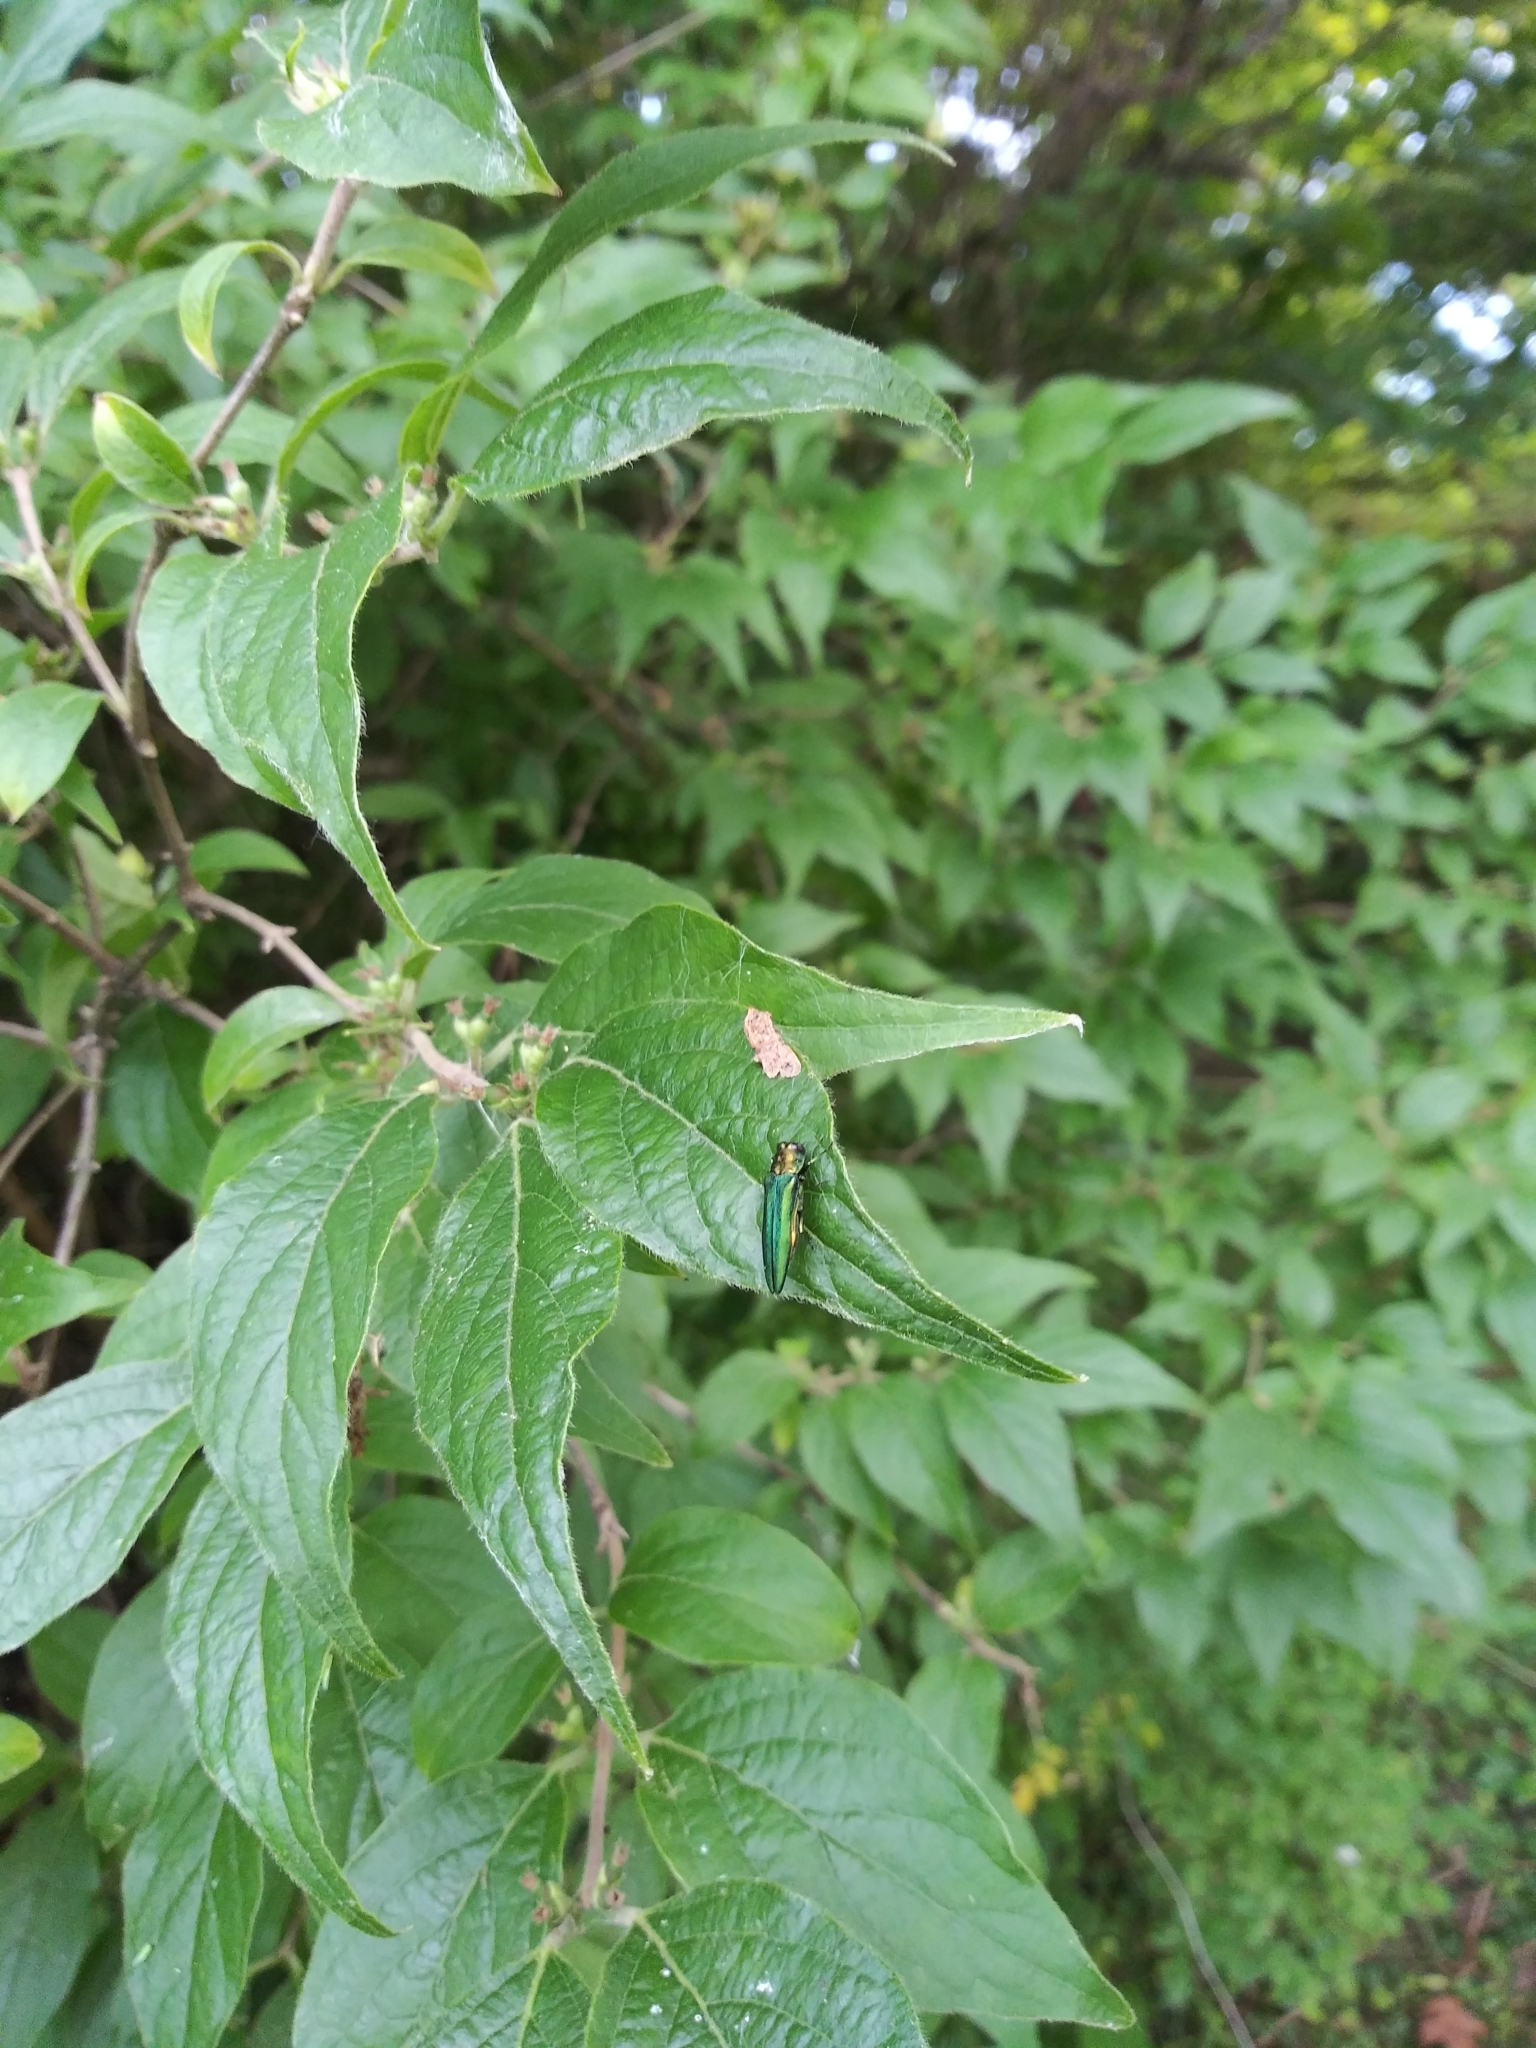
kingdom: Animalia
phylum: Arthropoda
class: Insecta
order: Coleoptera
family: Buprestidae
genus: Agrilus
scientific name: Agrilus planipennis
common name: Emerald ash borer
